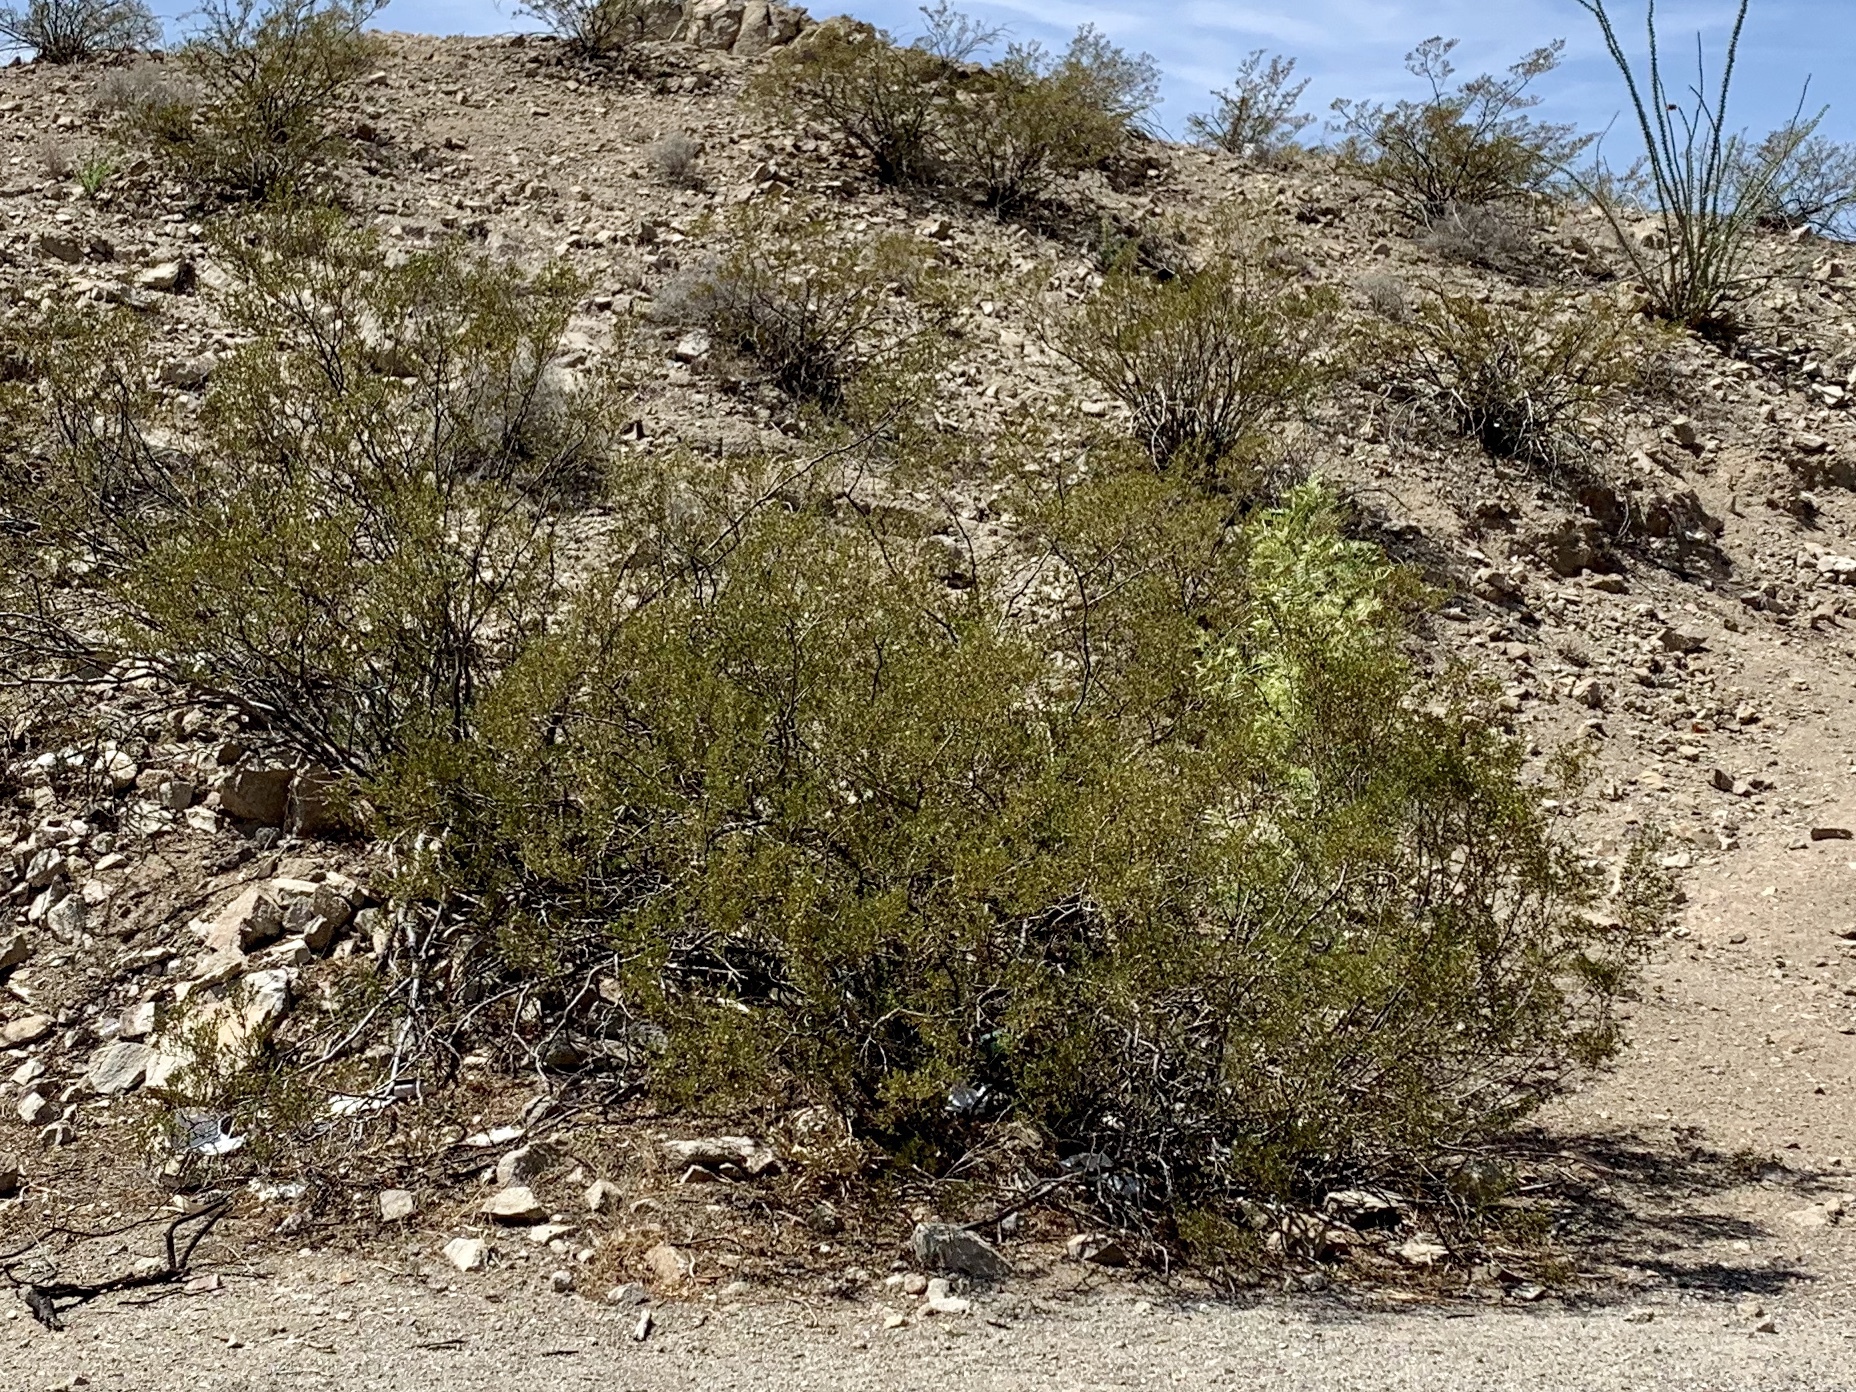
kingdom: Plantae
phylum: Tracheophyta
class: Magnoliopsida
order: Zygophyllales
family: Zygophyllaceae
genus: Larrea
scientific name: Larrea tridentata
